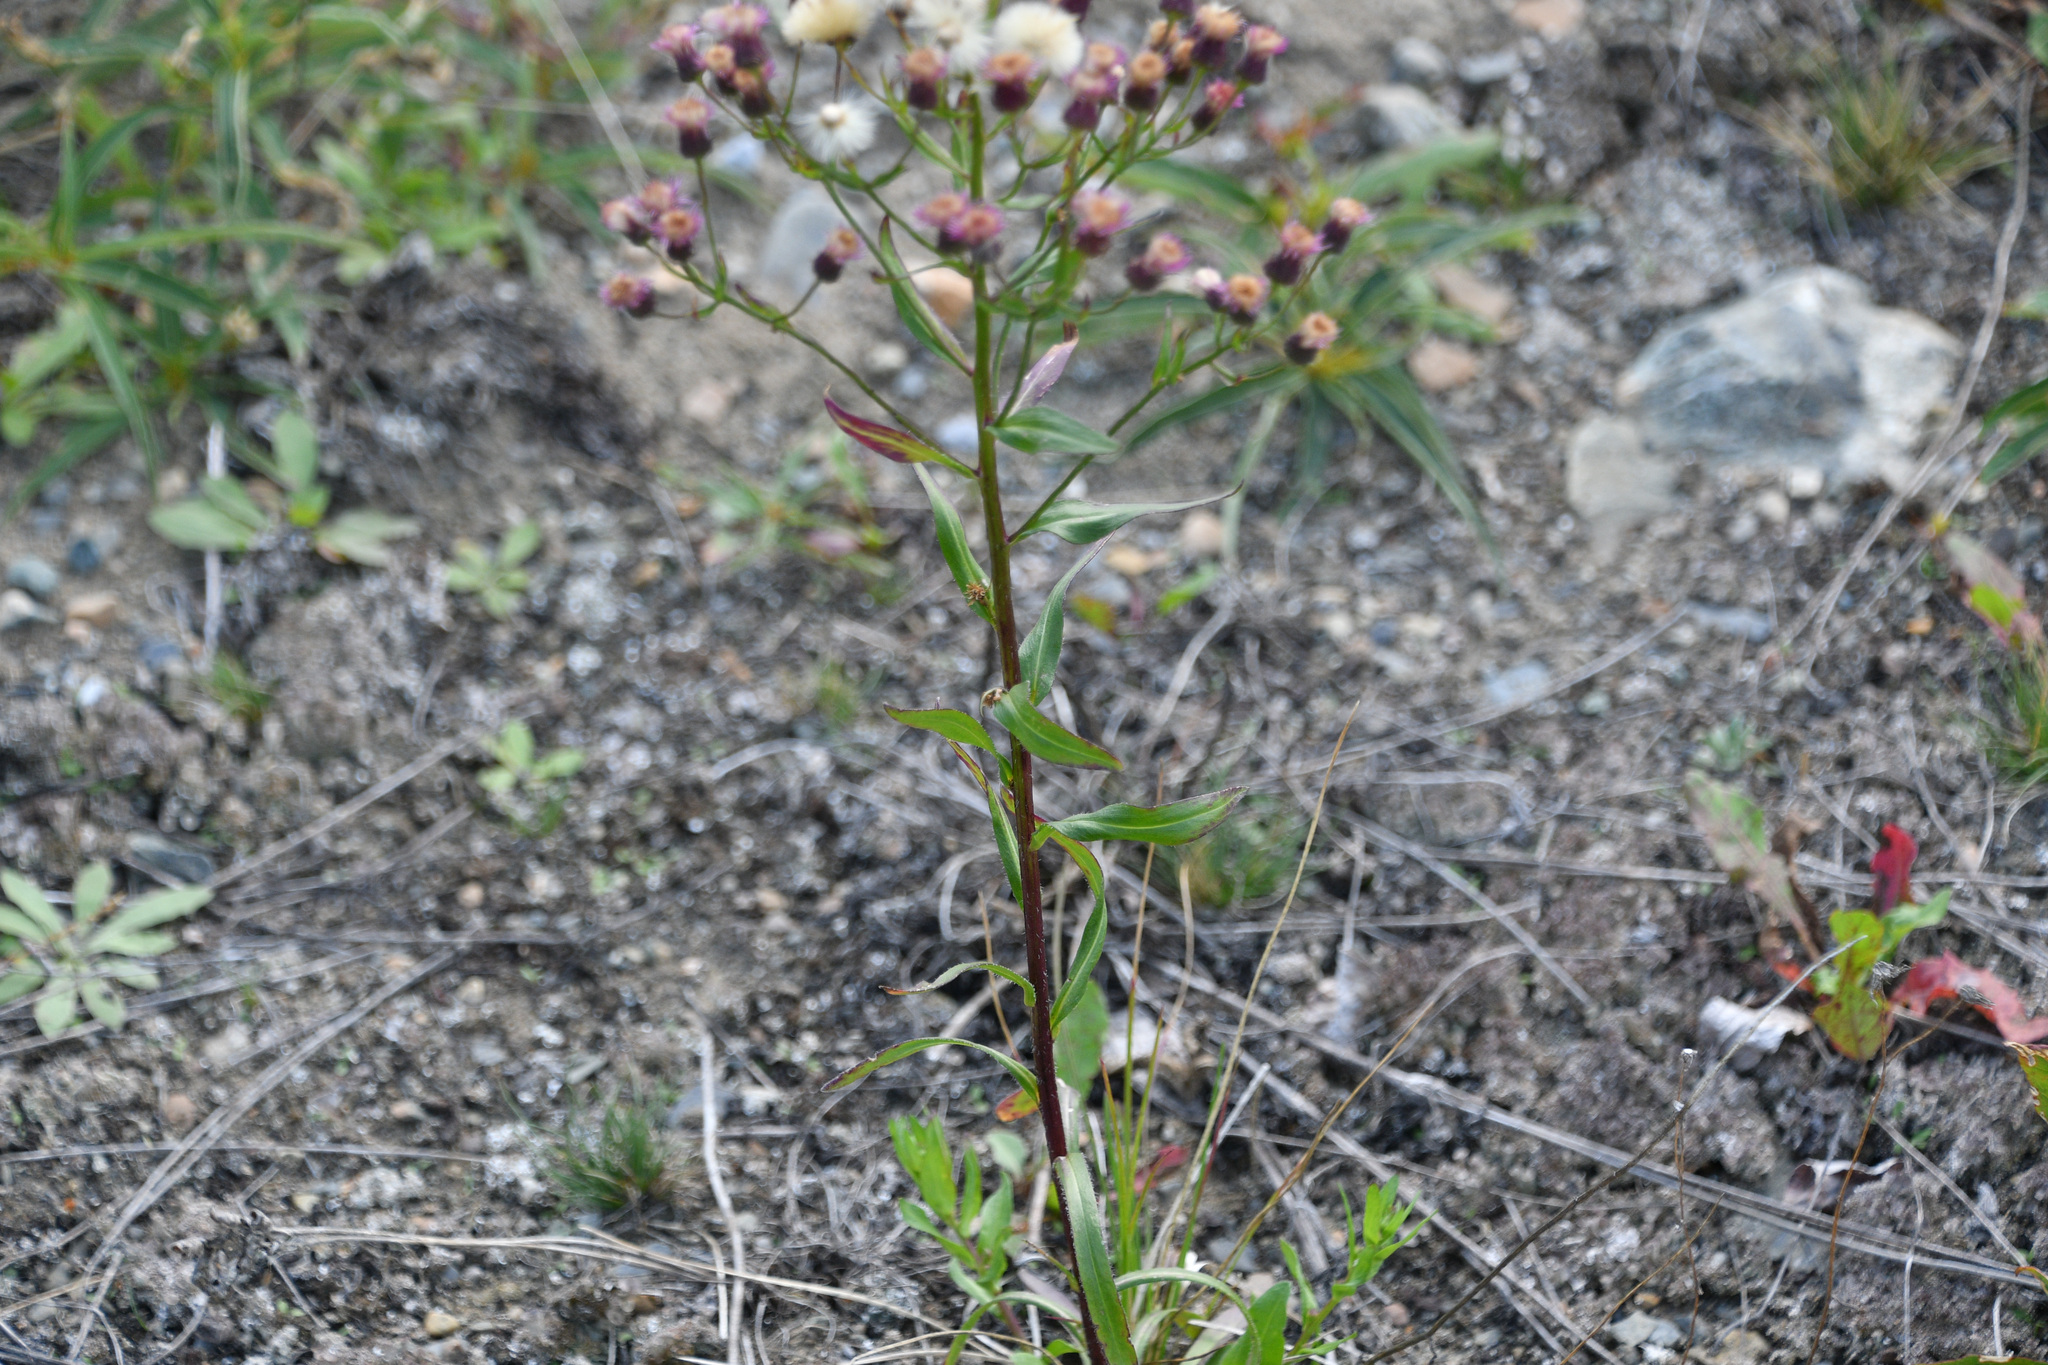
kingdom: Plantae
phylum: Tracheophyta
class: Magnoliopsida
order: Asterales
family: Asteraceae
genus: Erigeron
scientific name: Erigeron acris
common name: Blue fleabane
